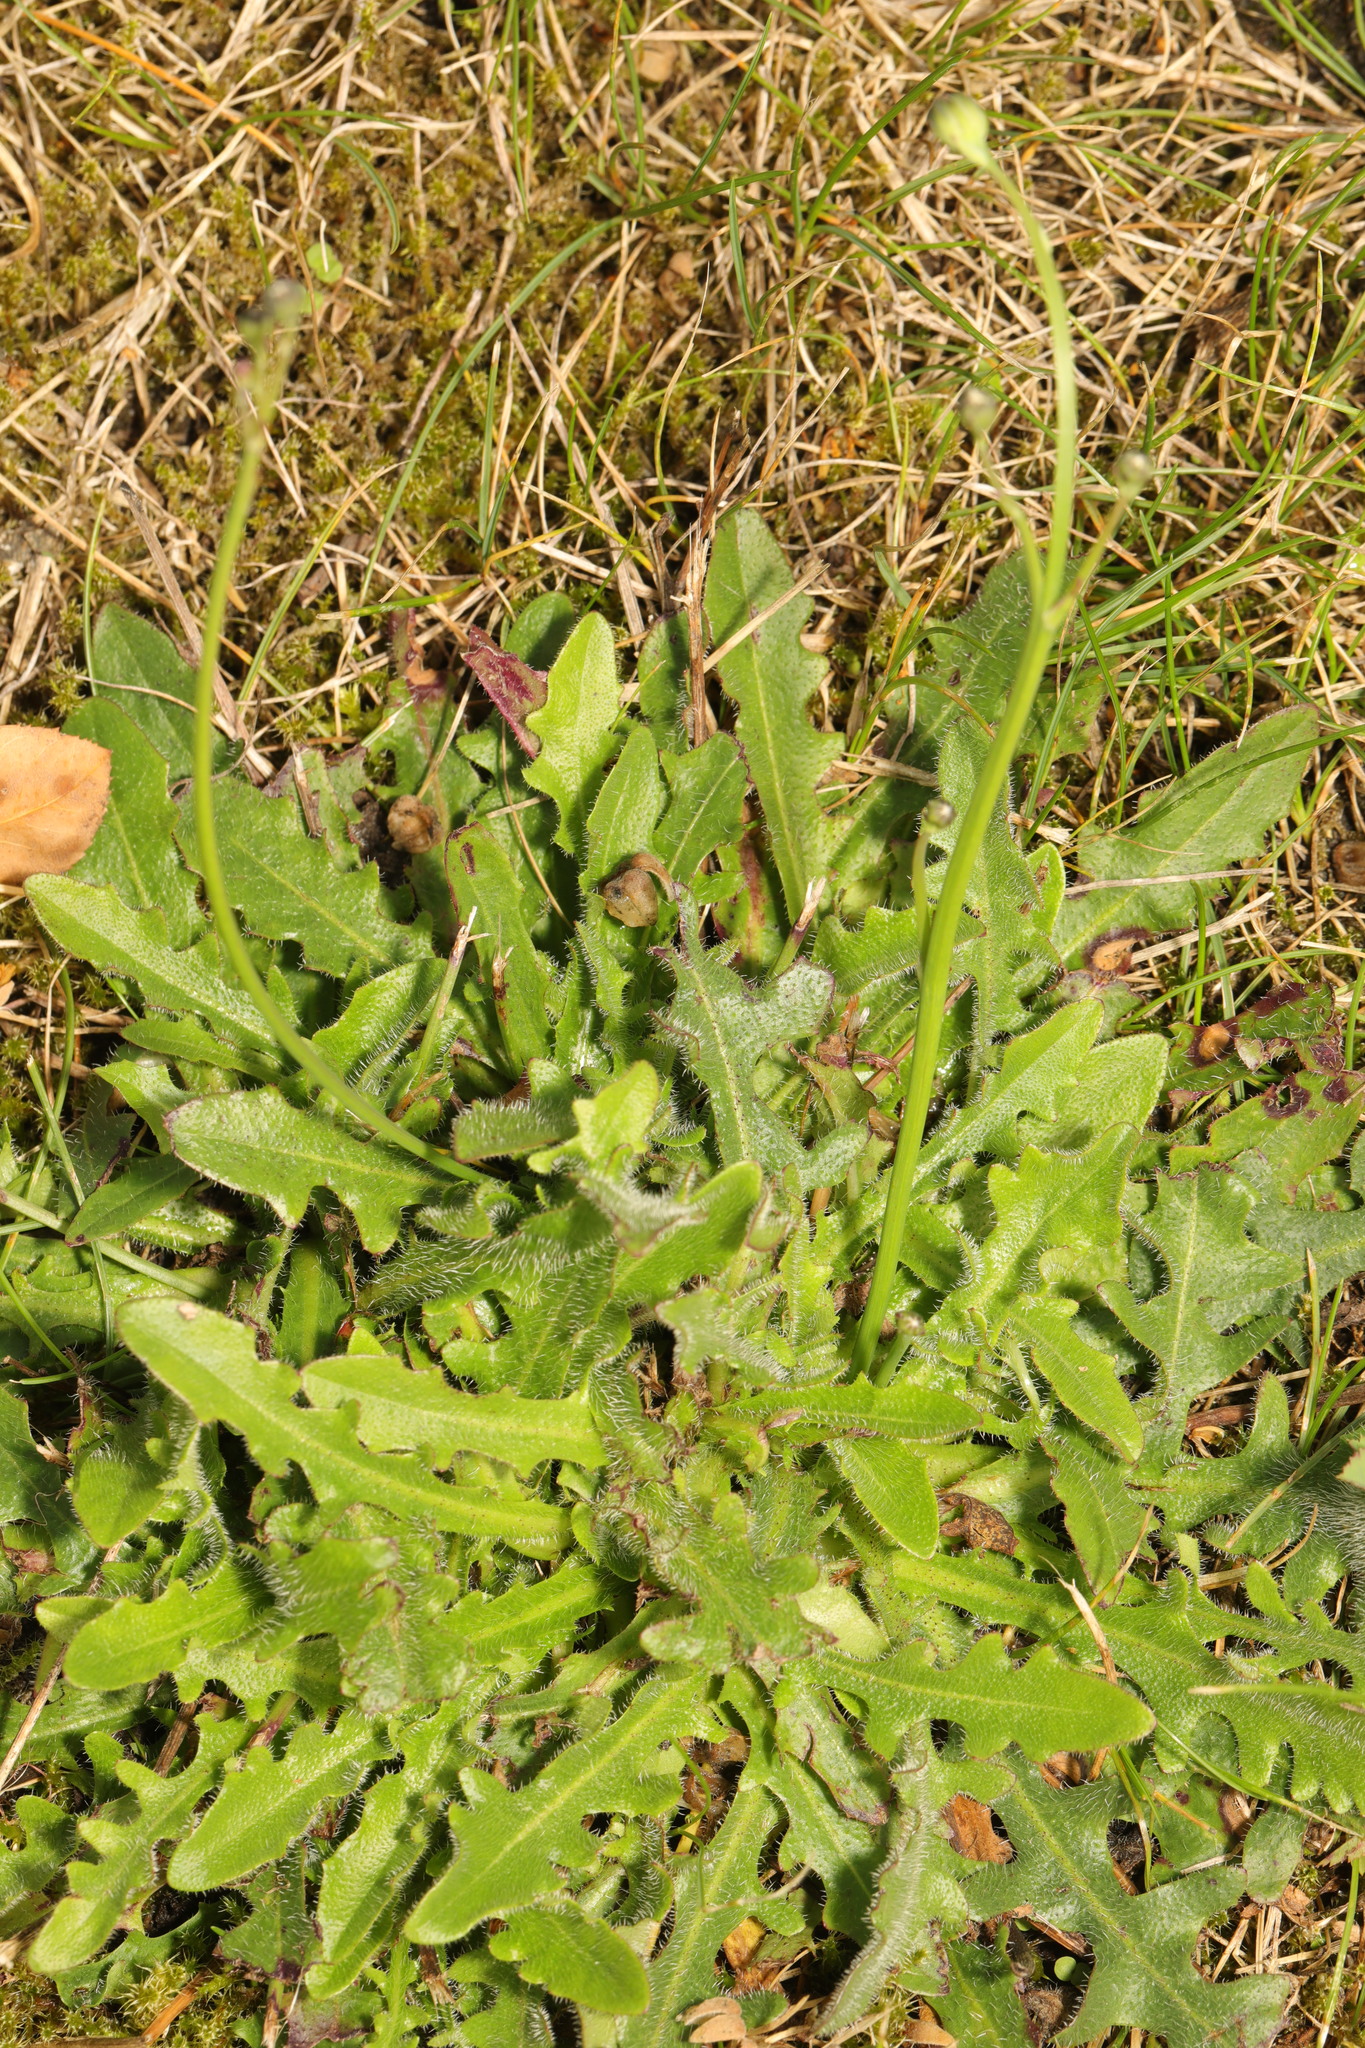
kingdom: Plantae
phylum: Tracheophyta
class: Magnoliopsida
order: Asterales
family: Asteraceae
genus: Hypochaeris
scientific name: Hypochaeris radicata
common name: Flatweed
